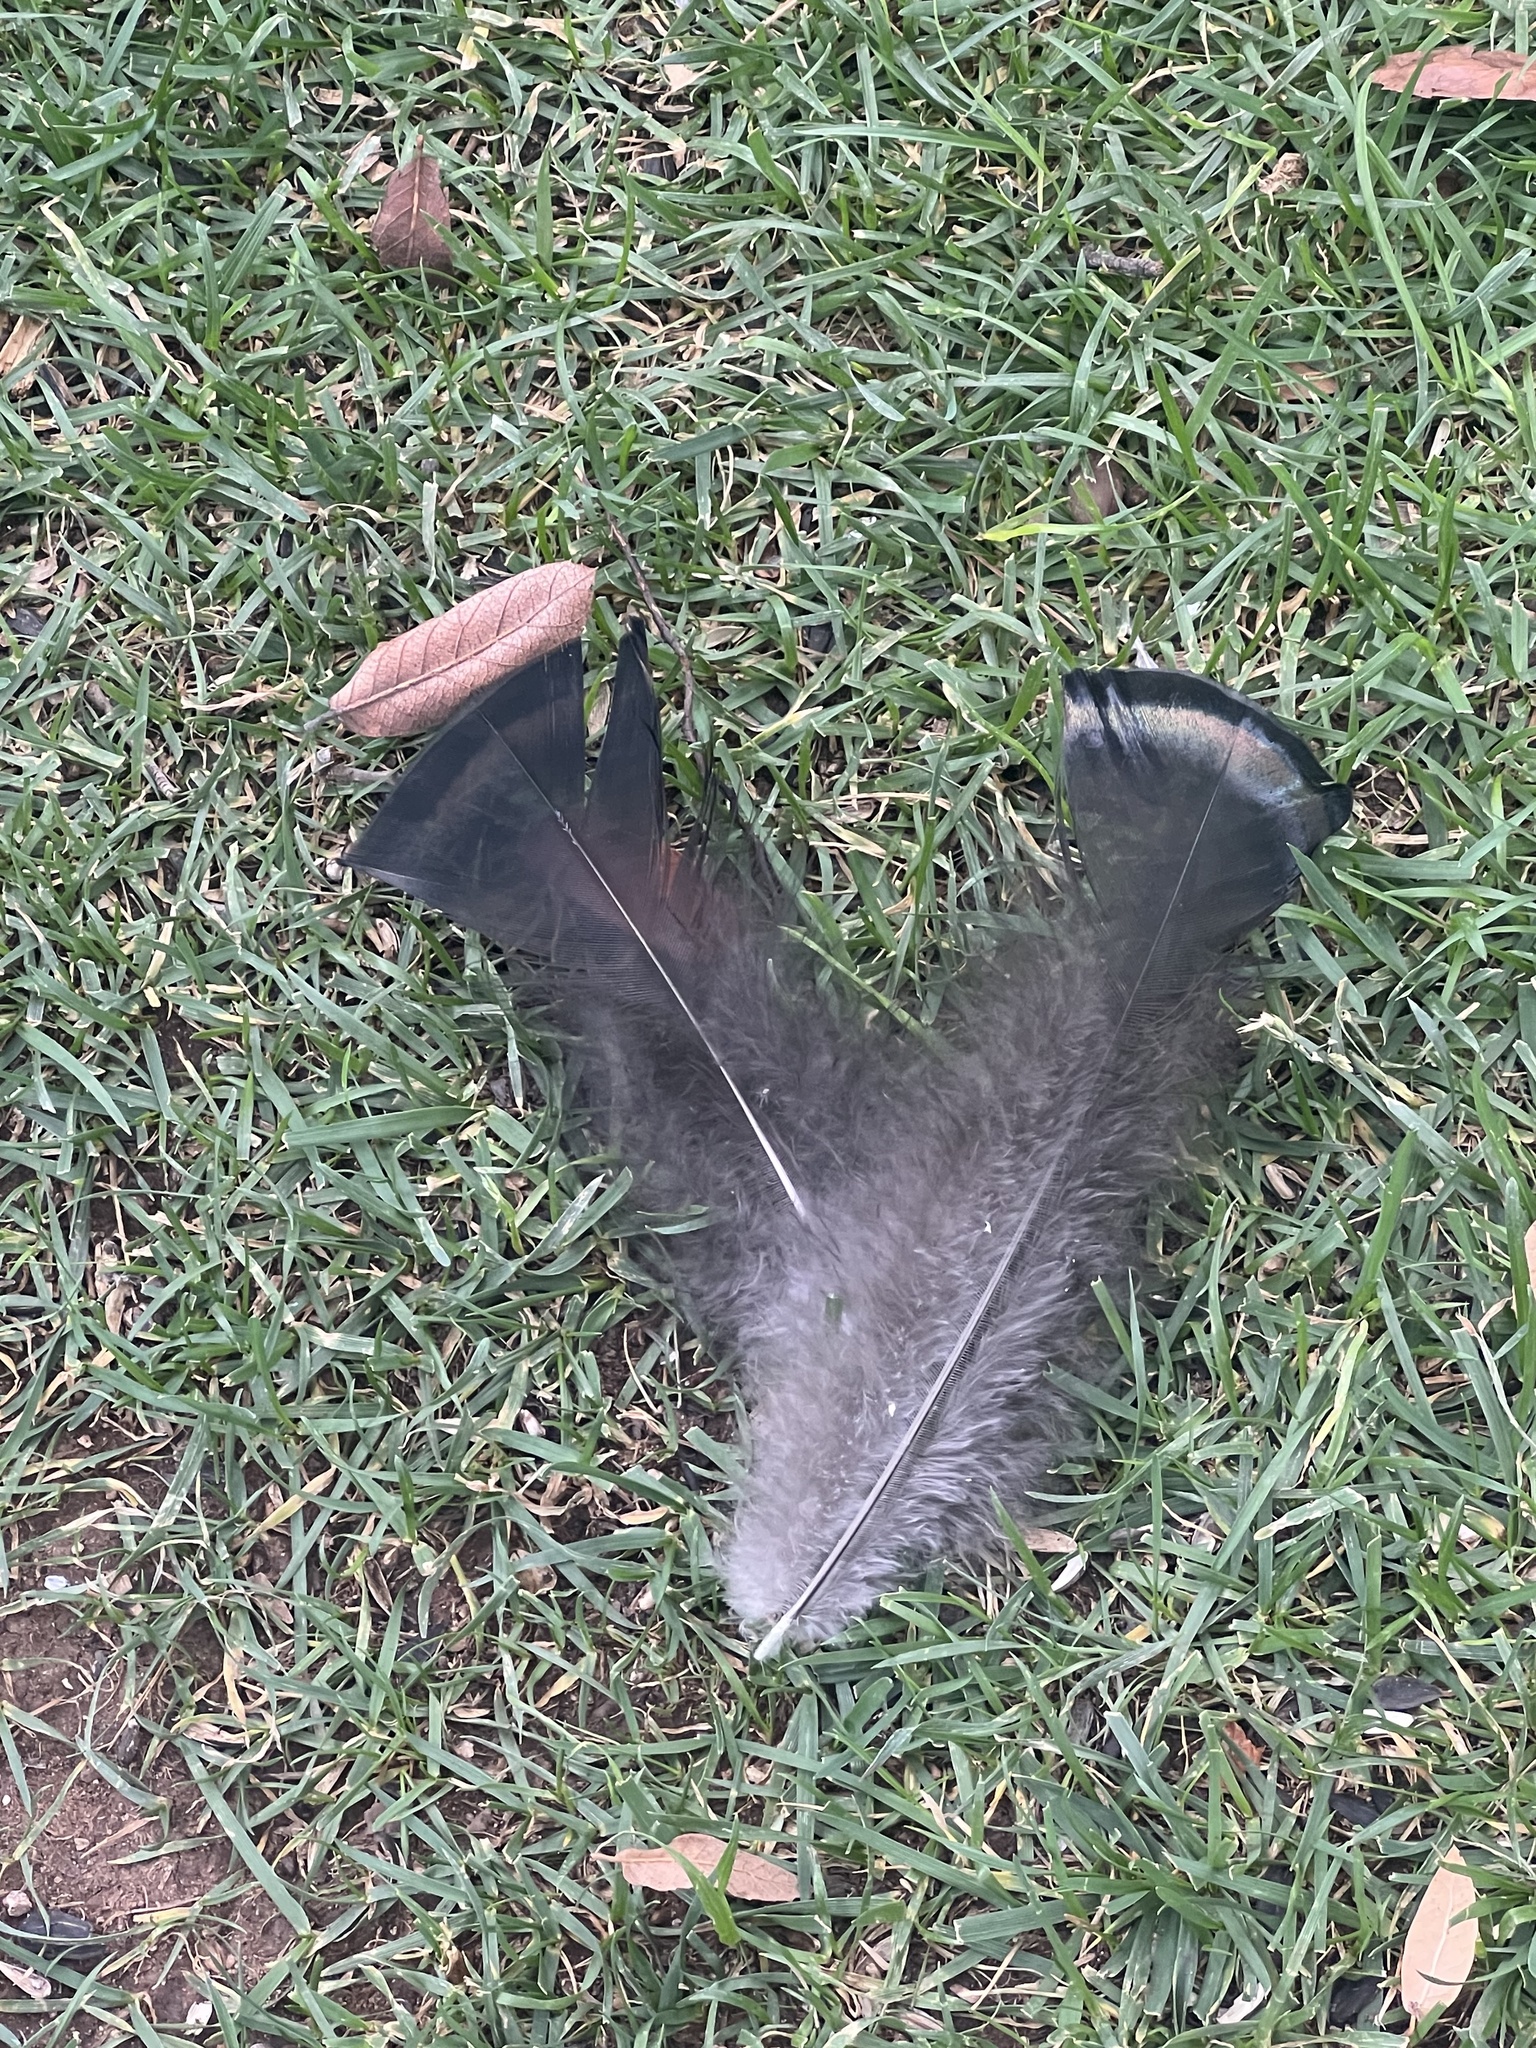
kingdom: Animalia
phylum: Chordata
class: Aves
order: Galliformes
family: Phasianidae
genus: Meleagris
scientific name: Meleagris gallopavo
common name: Wild turkey
